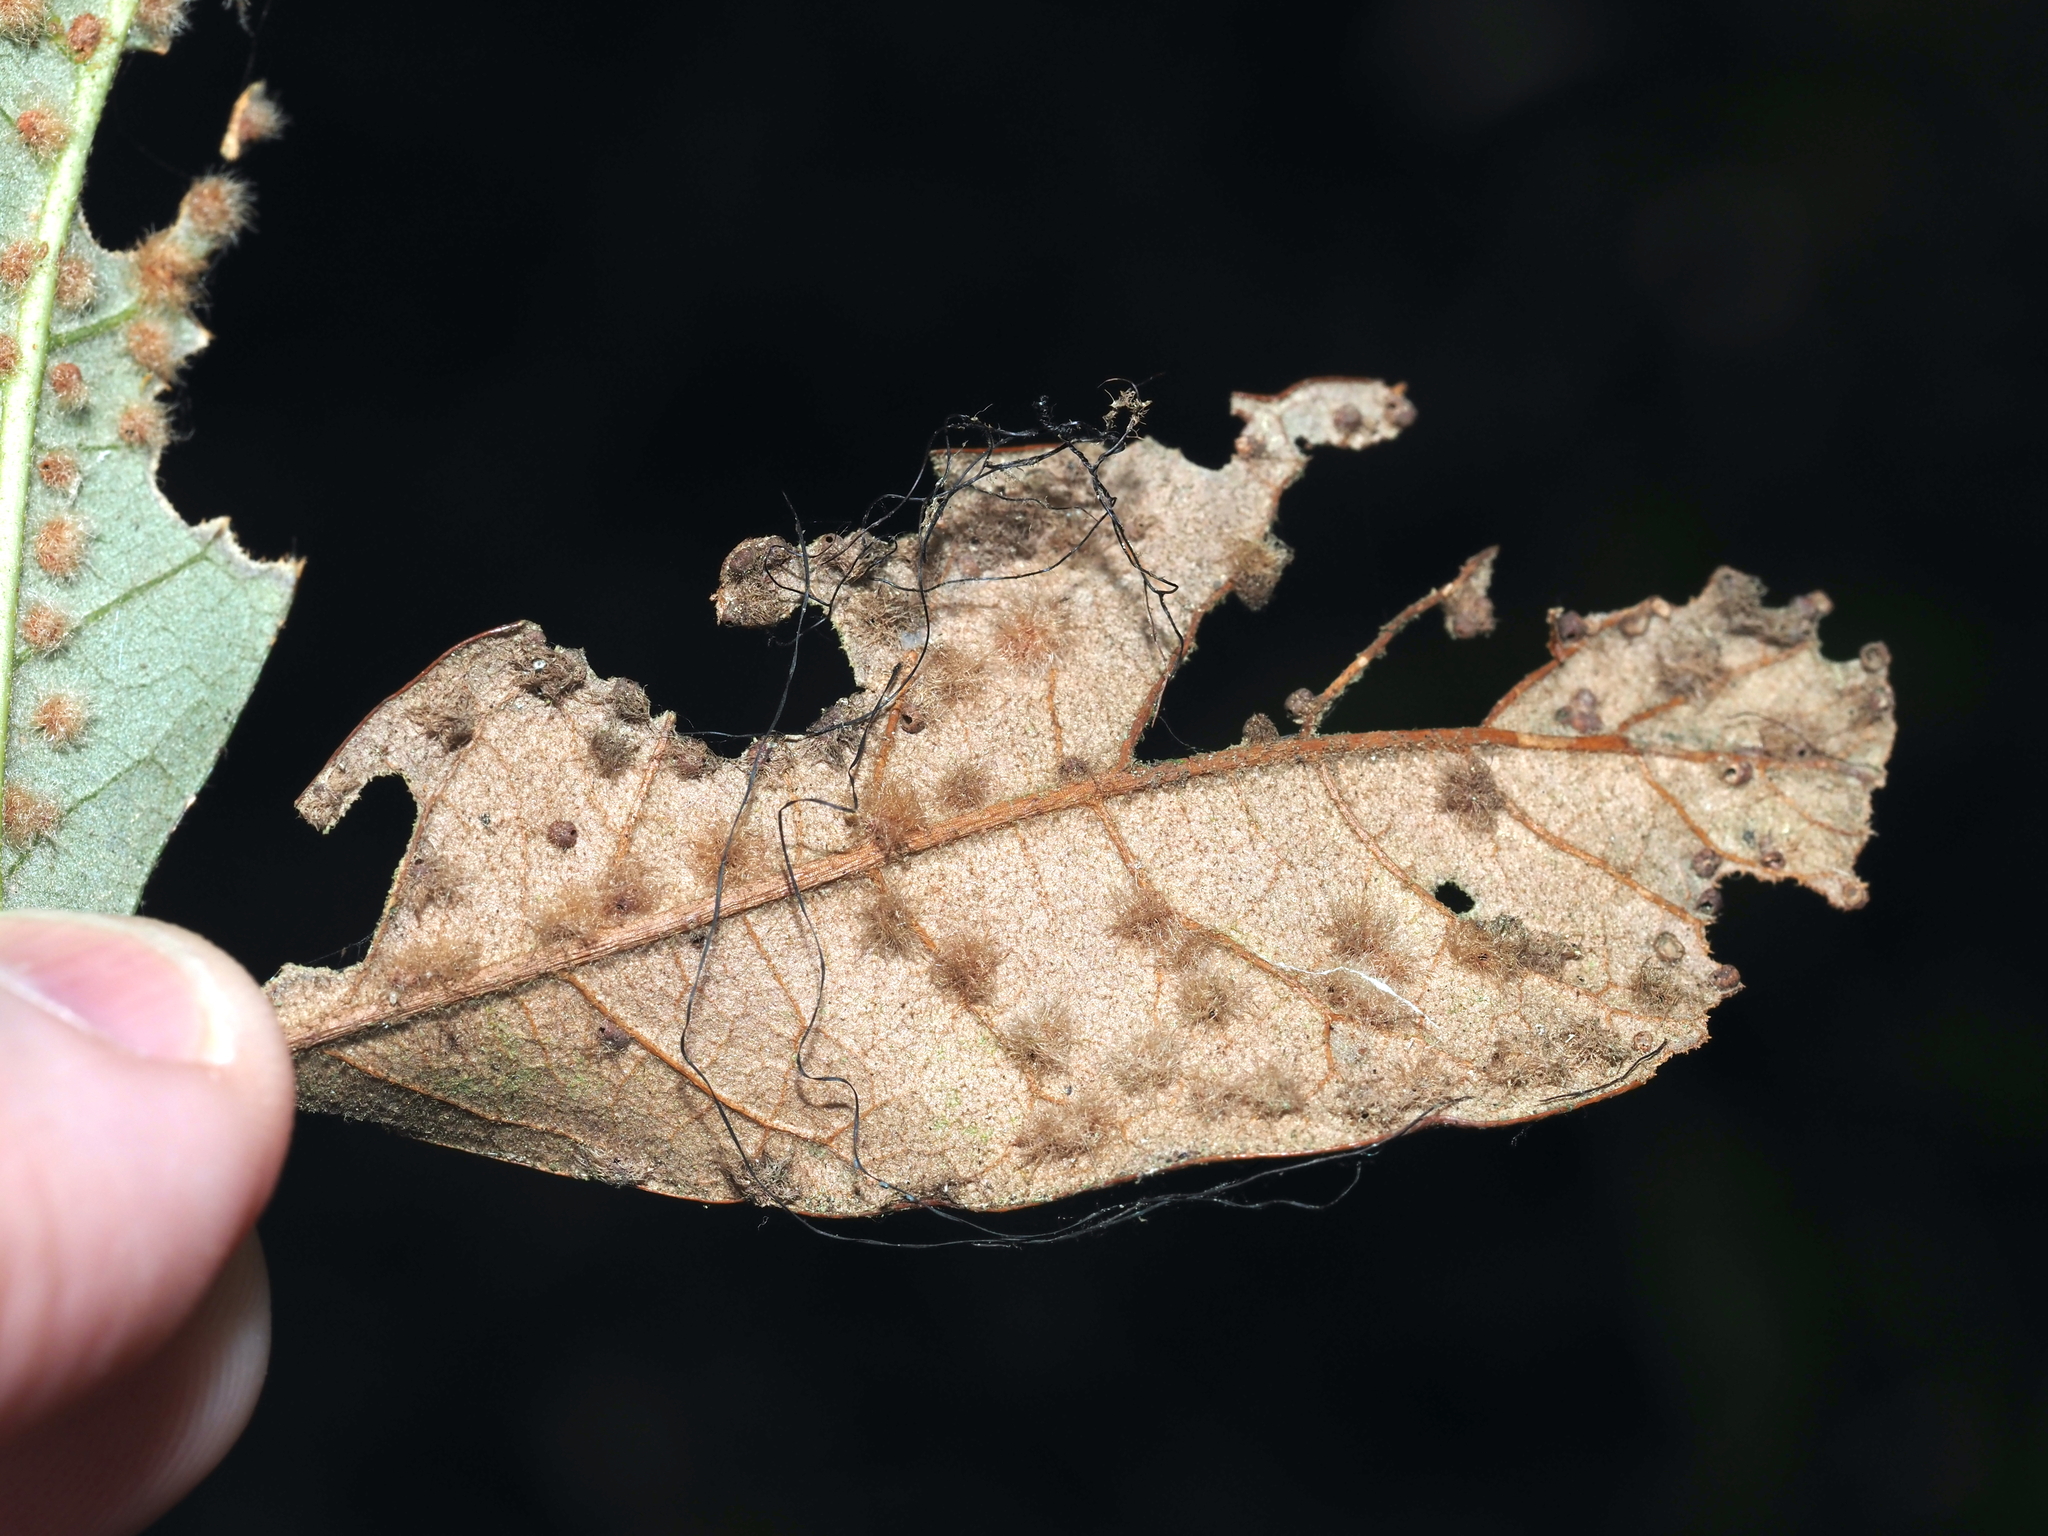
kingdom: Animalia
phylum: Arthropoda
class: Insecta
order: Hymenoptera
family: Cynipidae
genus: Neuroterus
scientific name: Neuroterus
